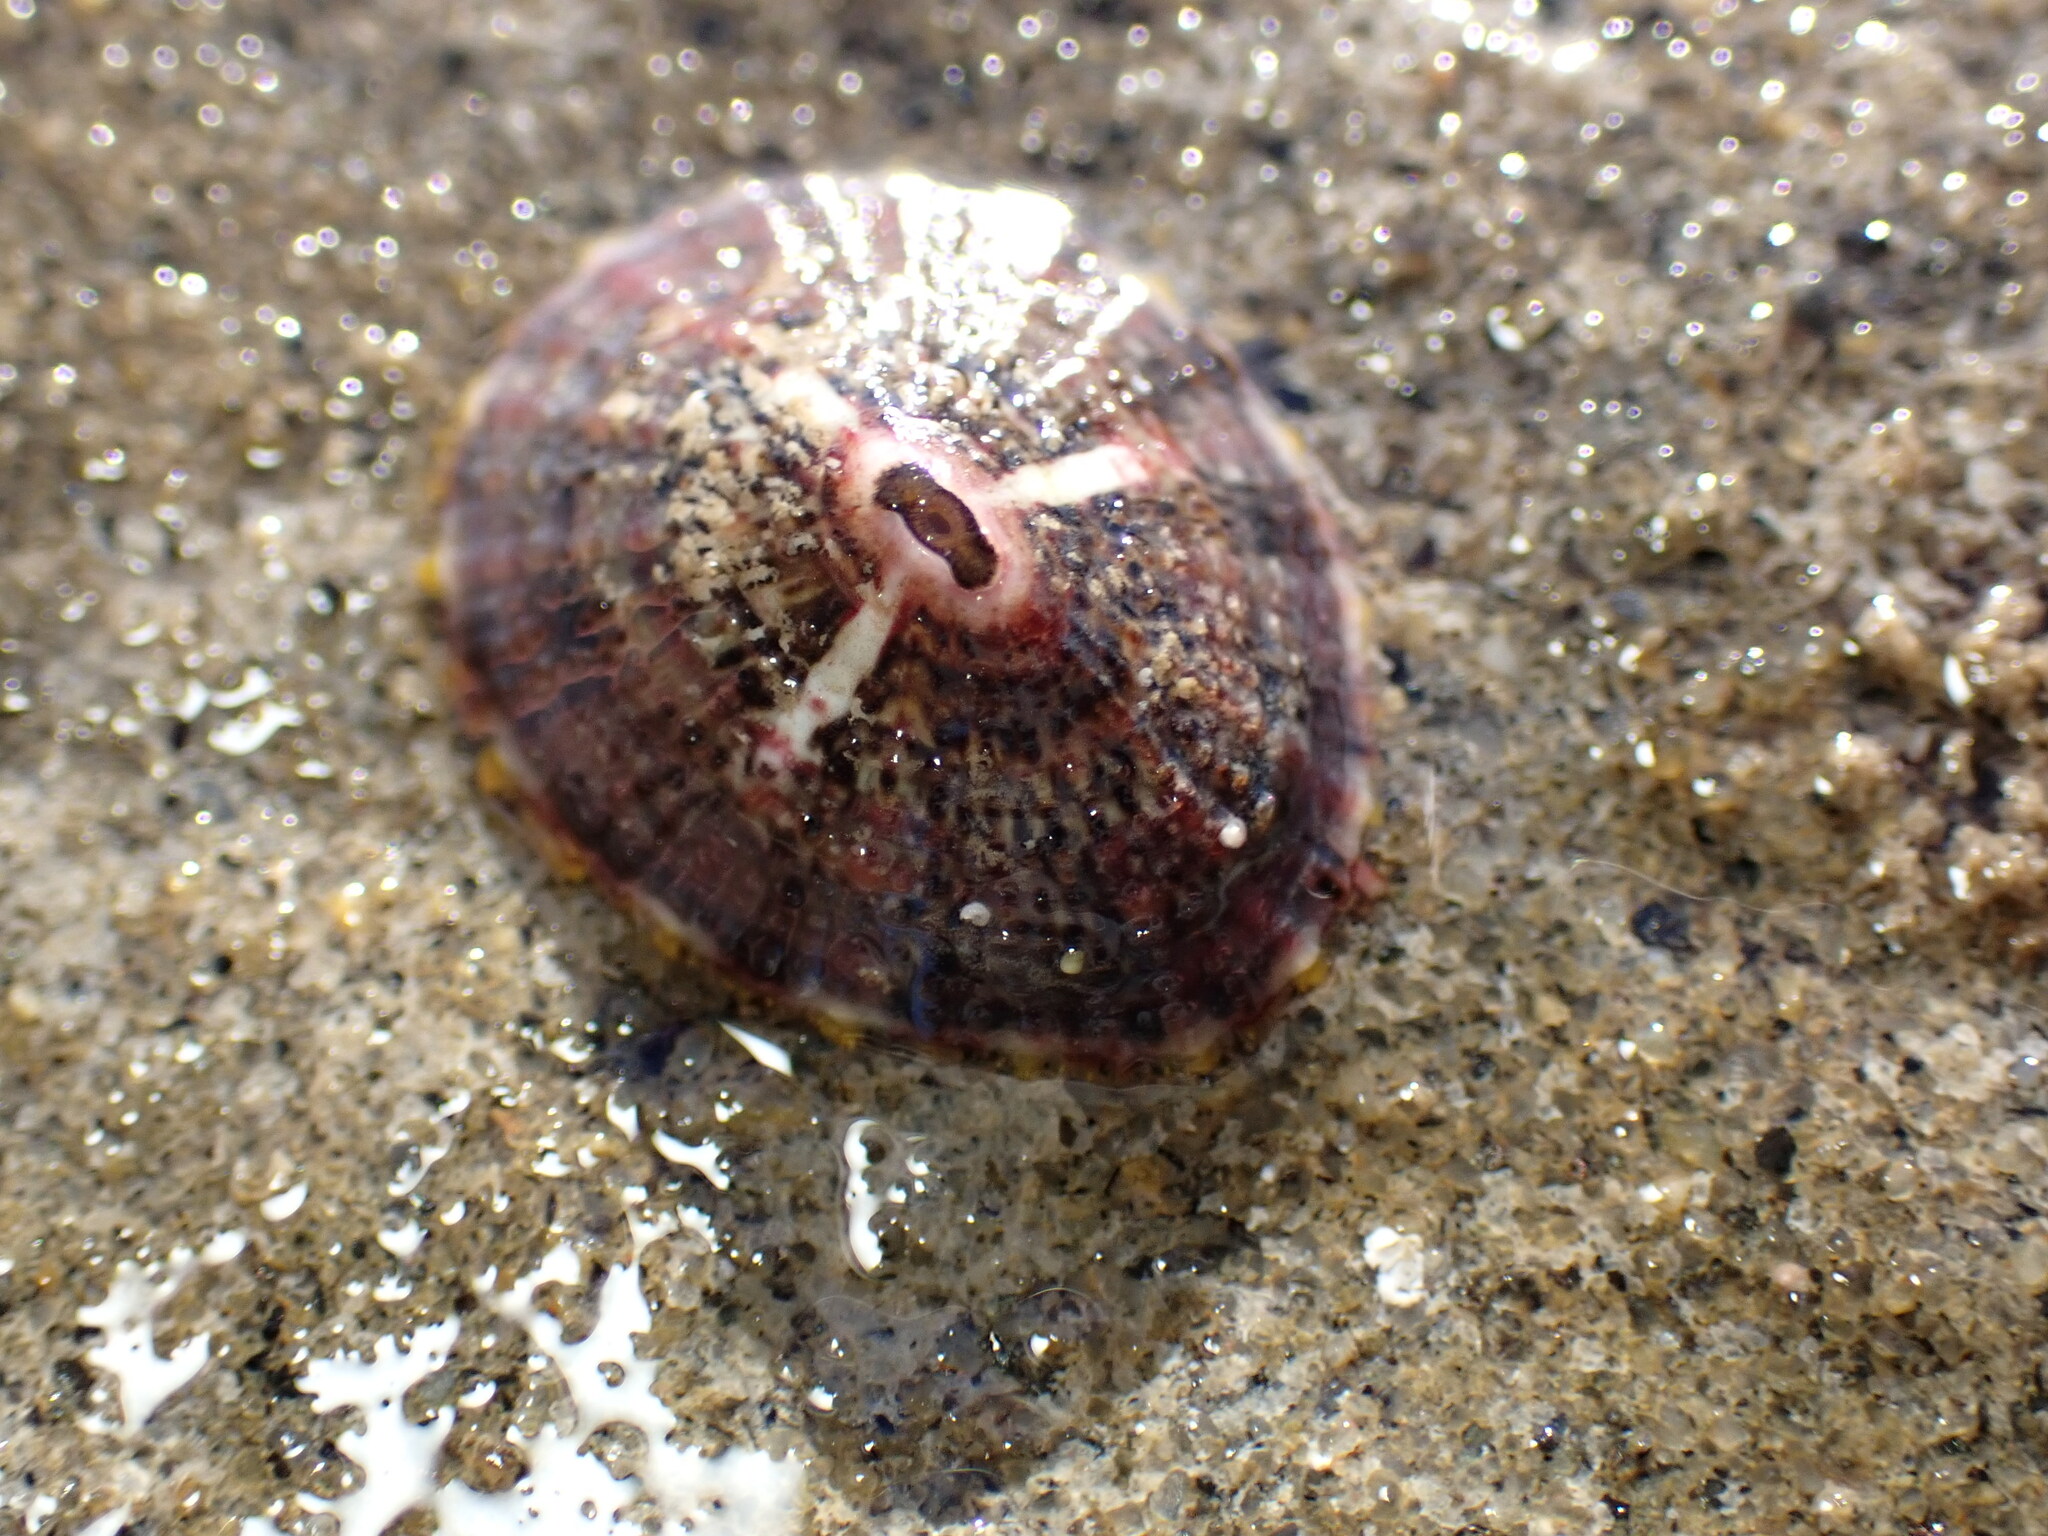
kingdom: Animalia
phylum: Mollusca
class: Gastropoda
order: Lepetellida
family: Fissurellidae
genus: Fissurella
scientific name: Fissurella volcano
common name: Volcano keyhole limpet
